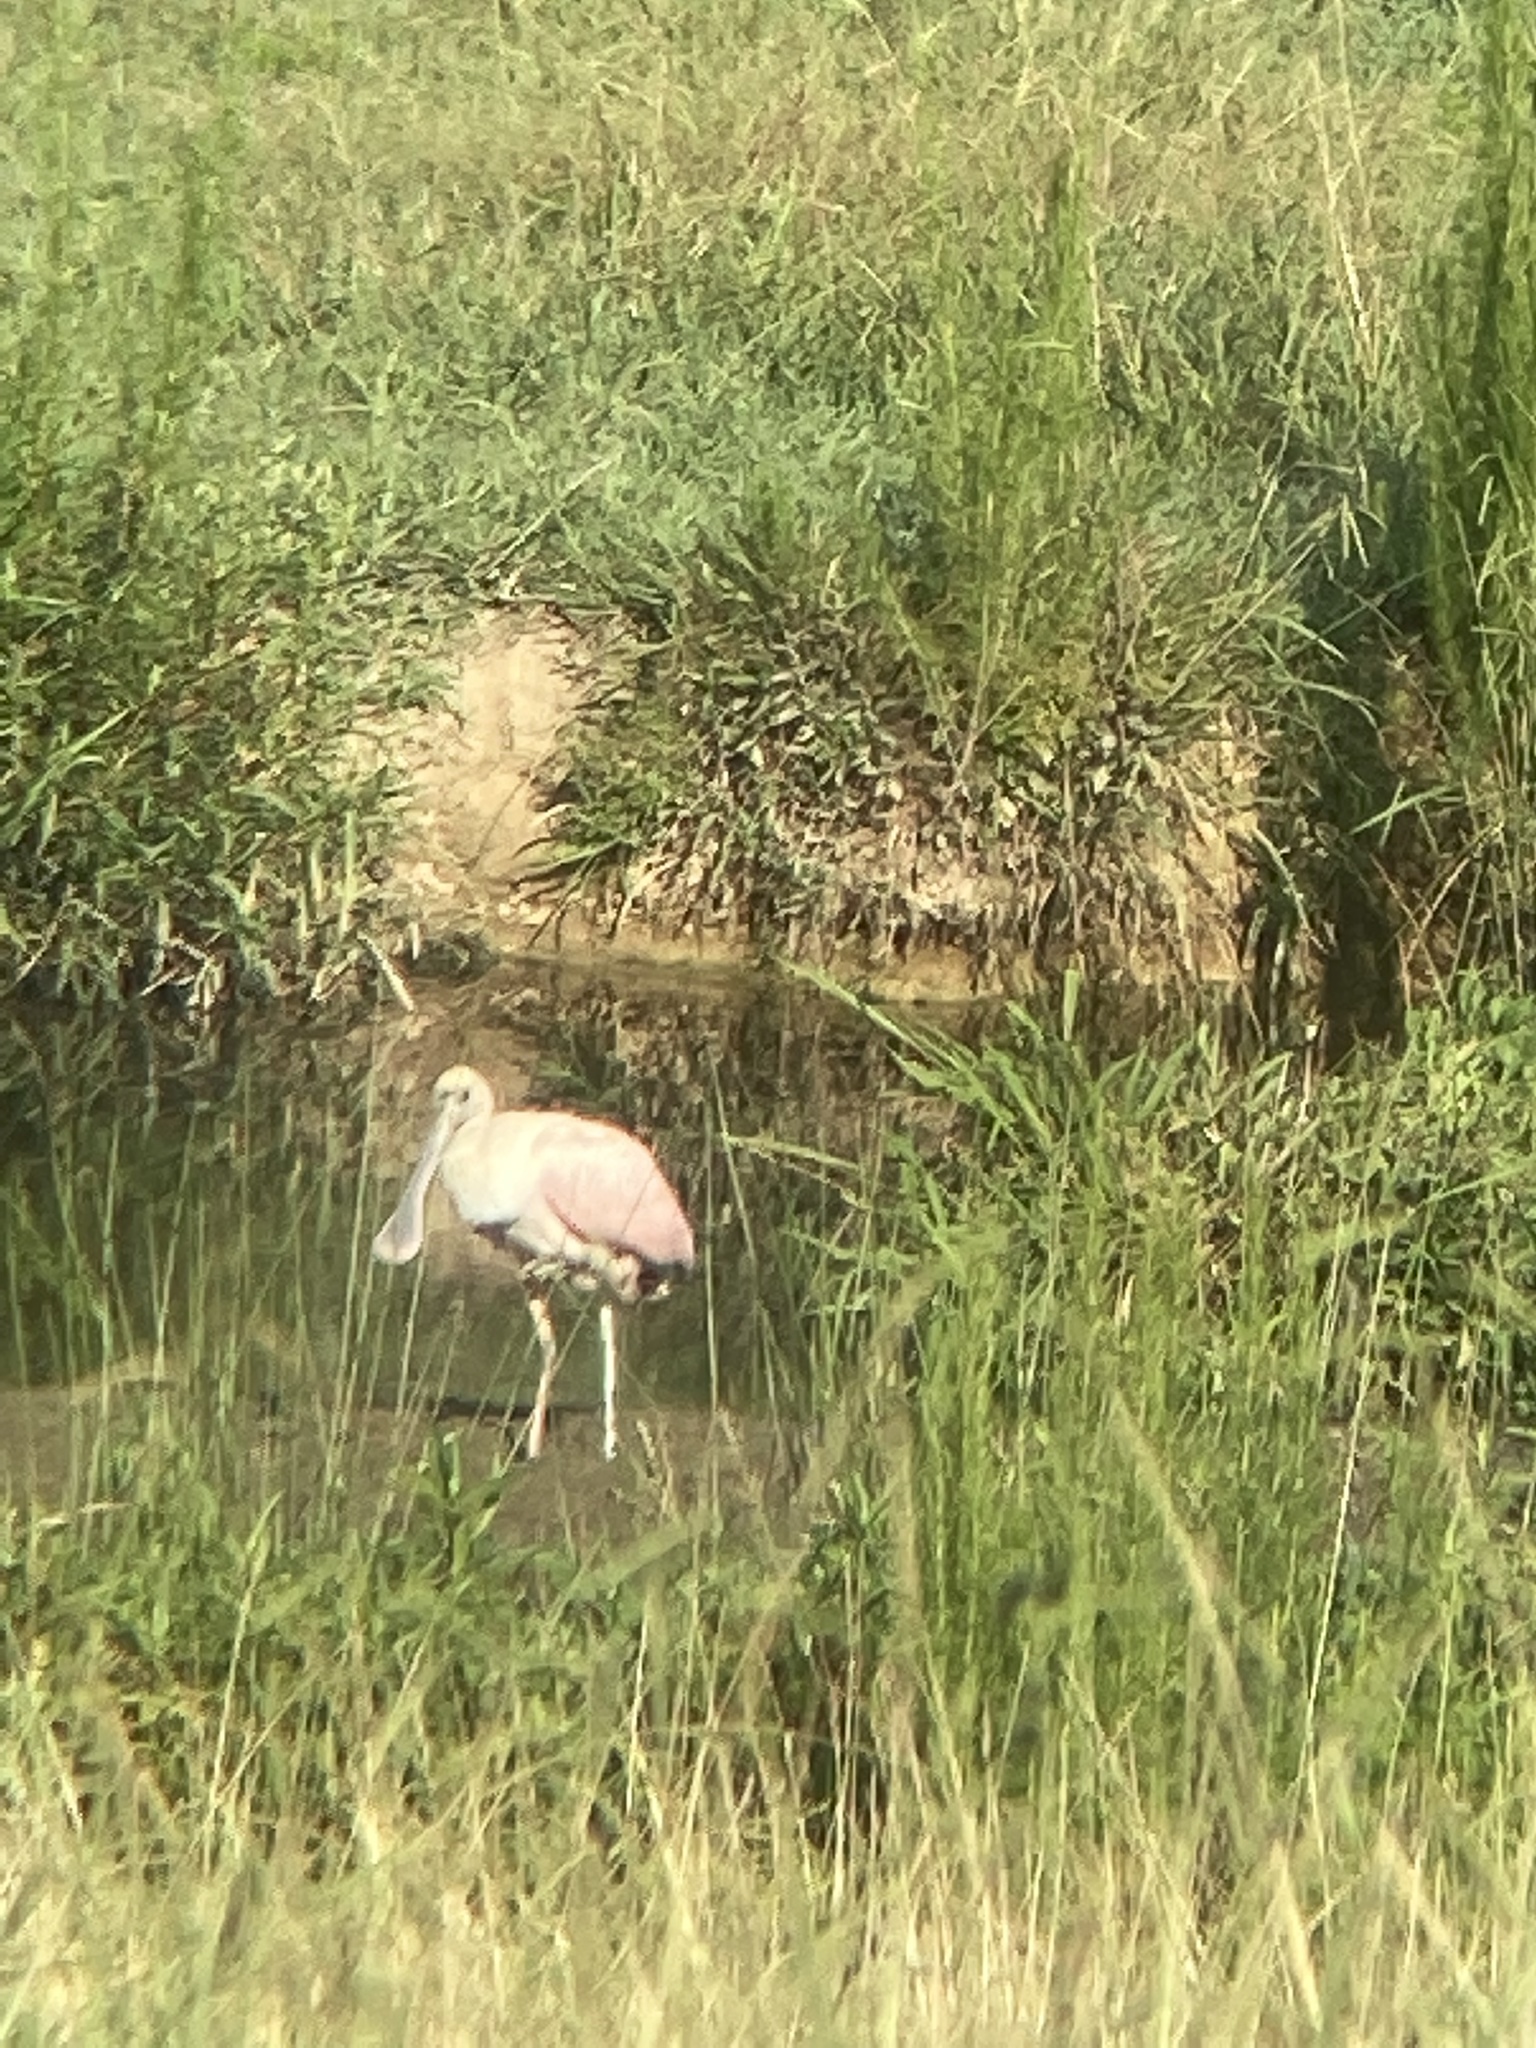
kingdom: Animalia
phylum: Chordata
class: Aves
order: Pelecaniformes
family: Threskiornithidae
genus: Platalea
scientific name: Platalea ajaja
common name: Roseate spoonbill
